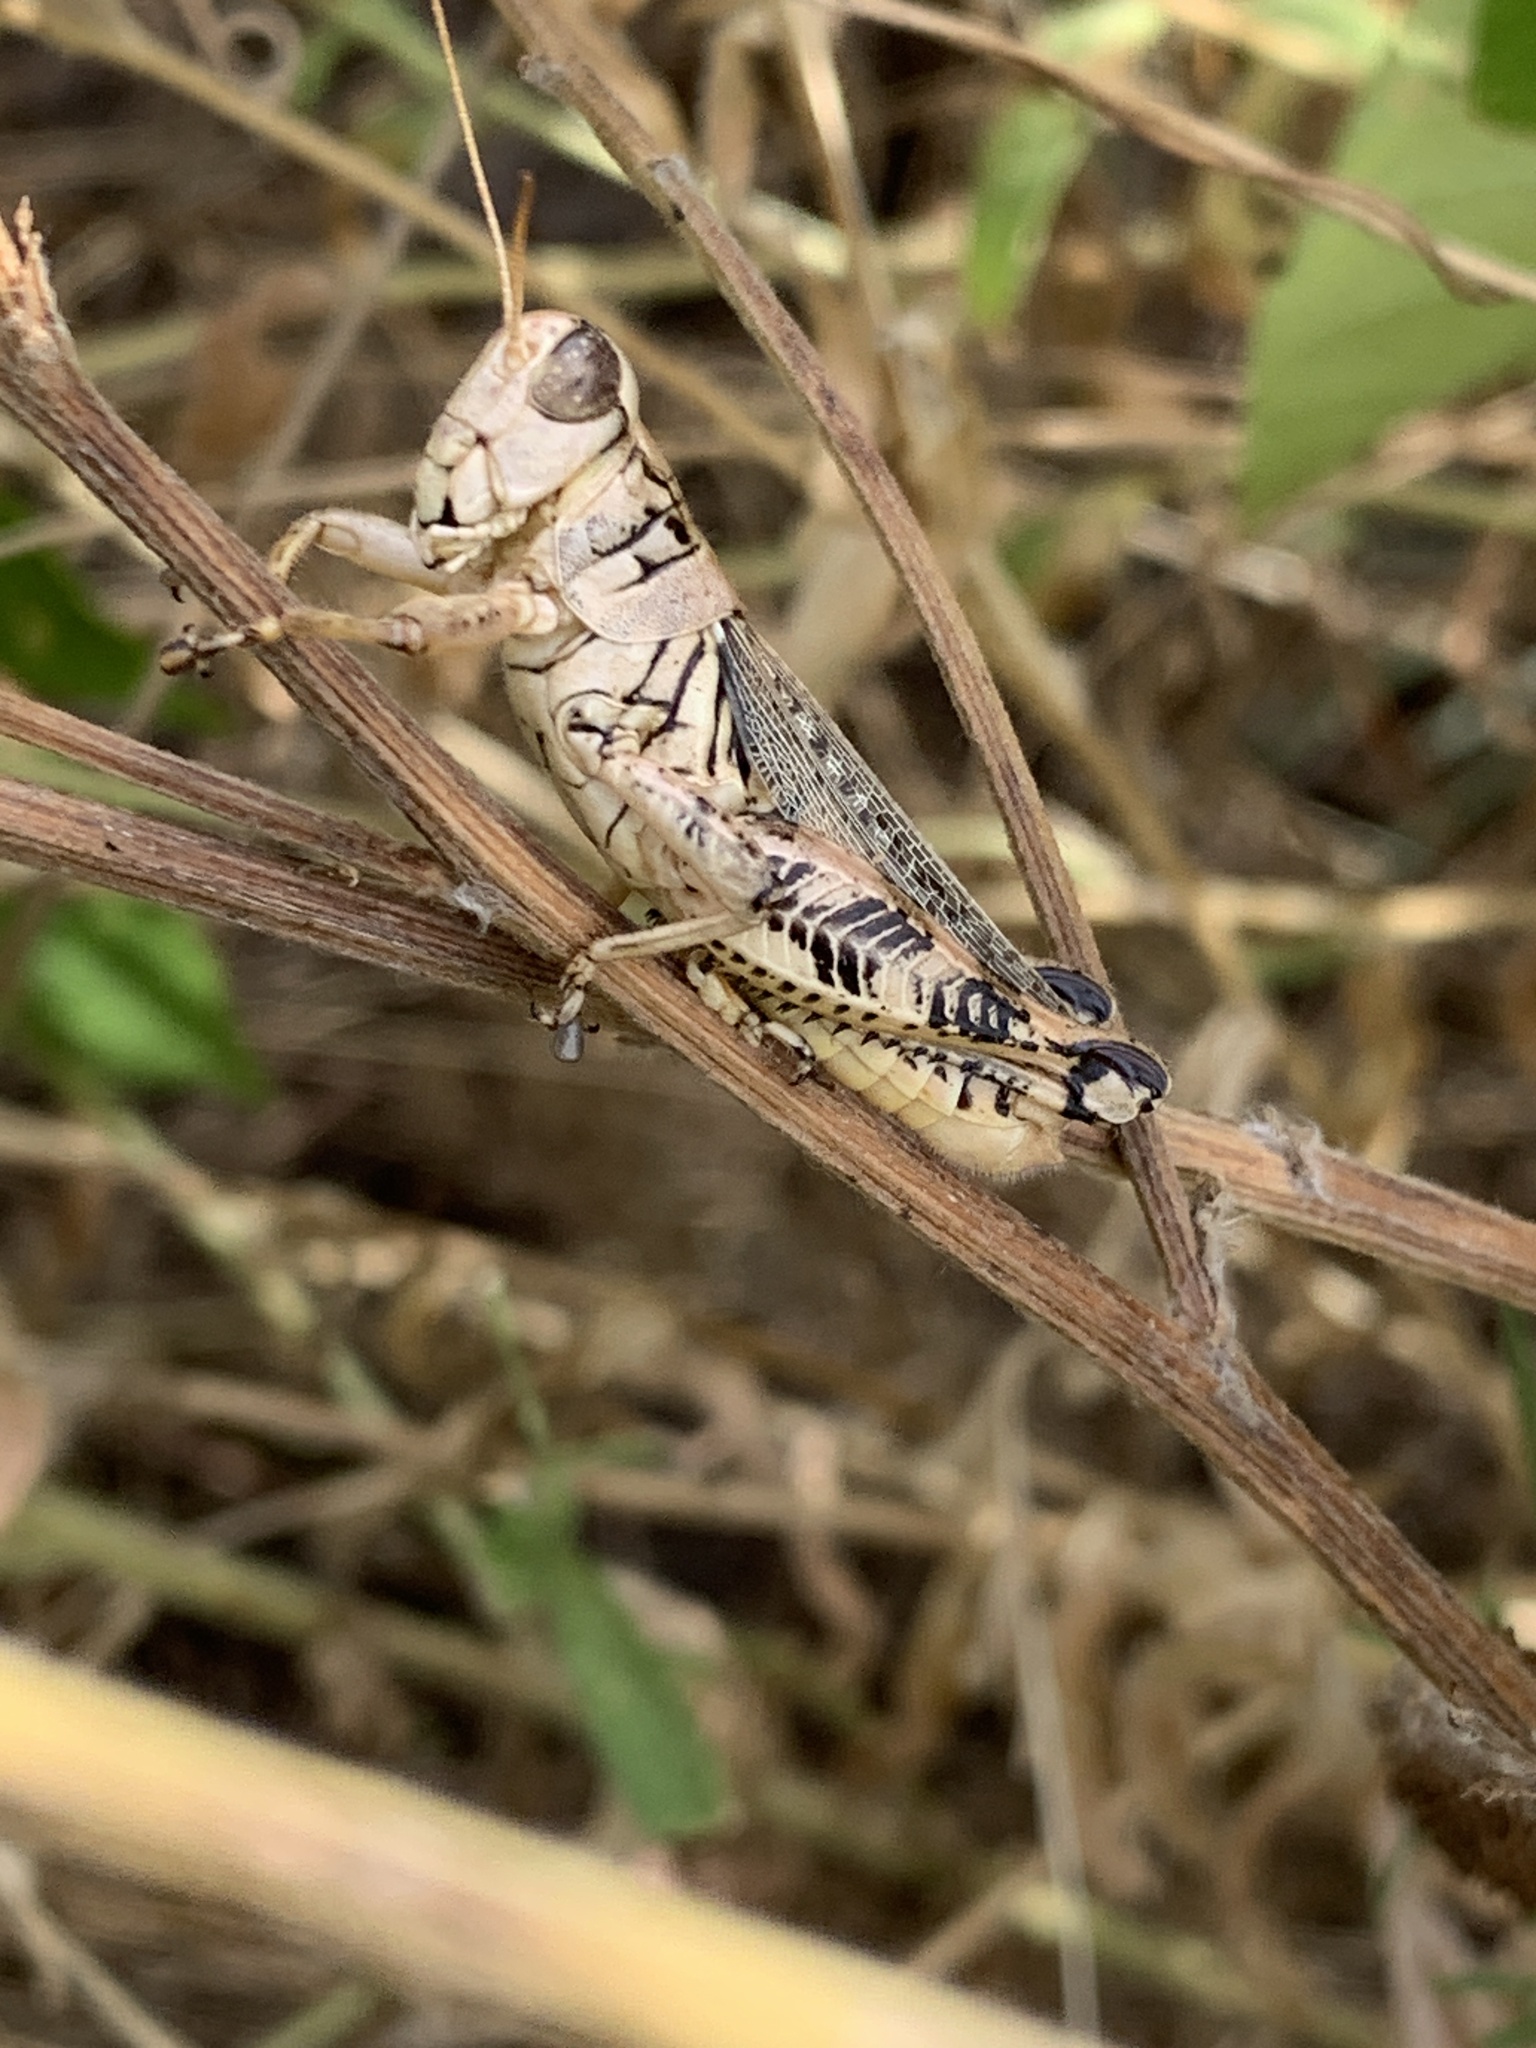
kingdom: Animalia
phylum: Arthropoda
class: Insecta
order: Orthoptera
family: Acrididae
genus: Melanoplus
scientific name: Melanoplus ponderosus
